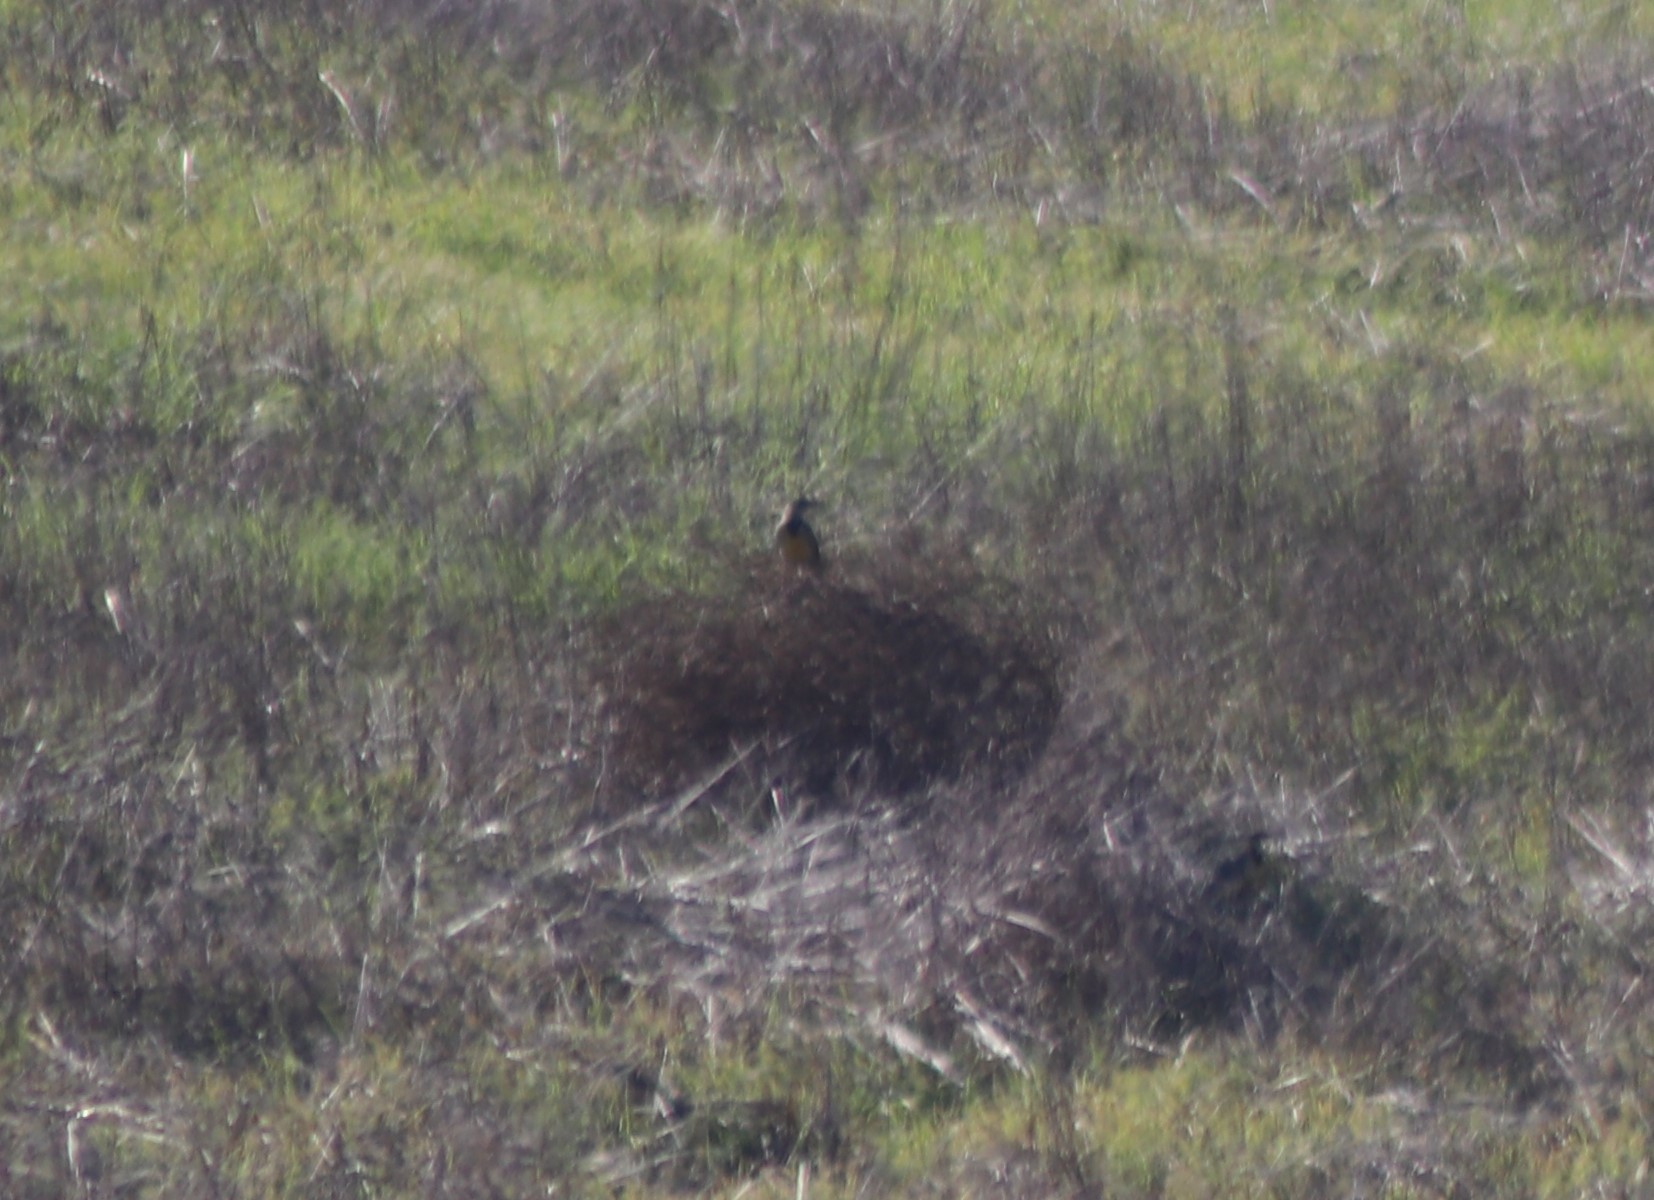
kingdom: Animalia
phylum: Chordata
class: Aves
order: Passeriformes
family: Icteridae
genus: Sturnella
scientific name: Sturnella neglecta
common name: Western meadowlark
